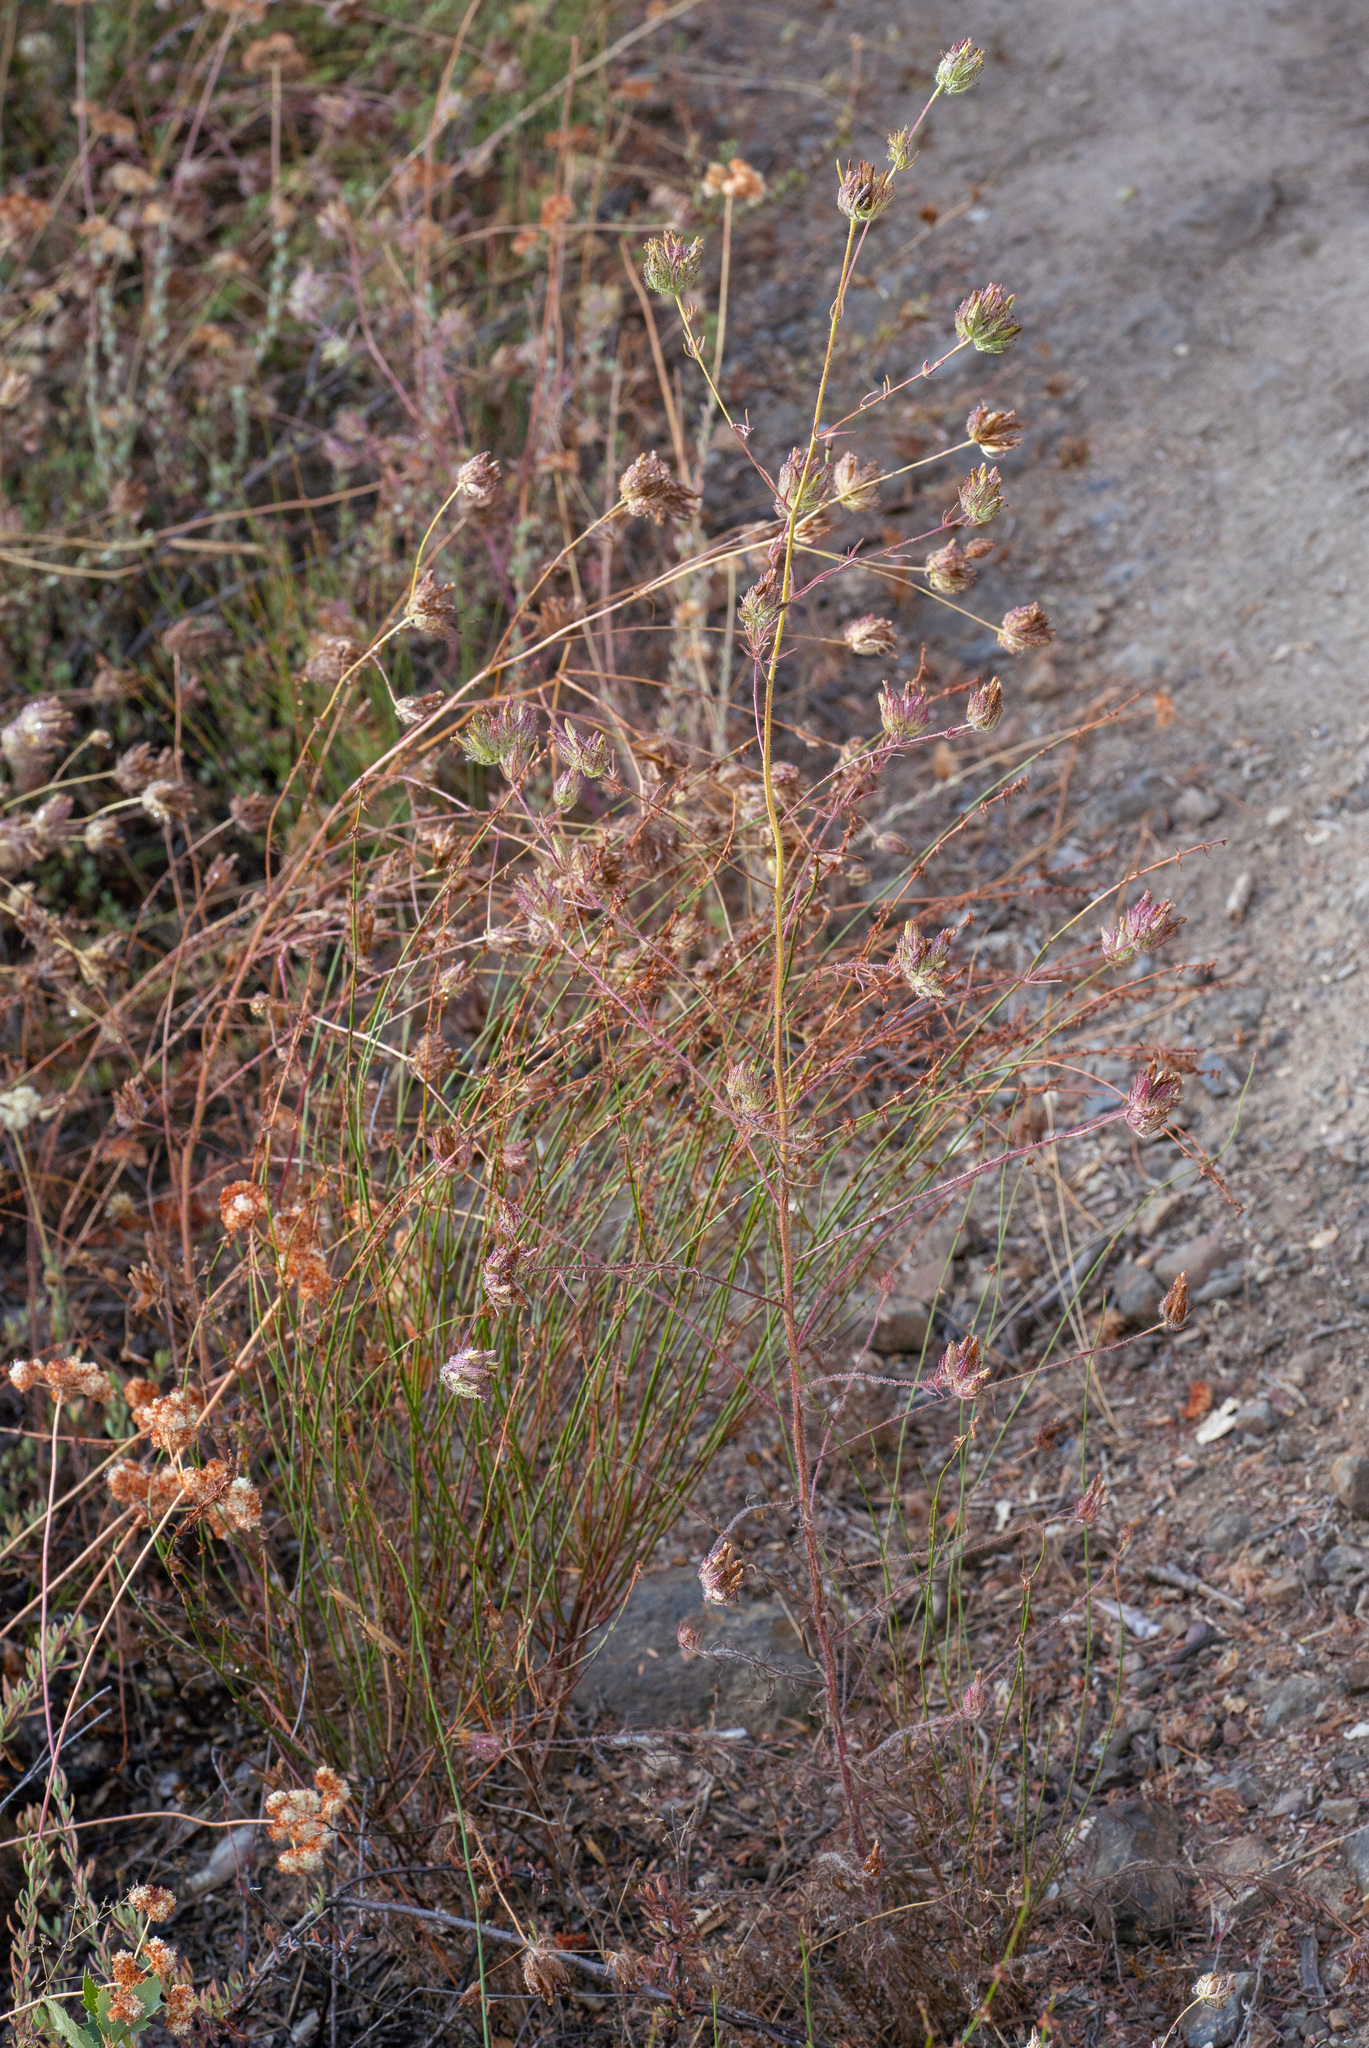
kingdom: Plantae
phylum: Tracheophyta
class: Magnoliopsida
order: Lamiales
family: Orobanchaceae
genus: Cordylanthus
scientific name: Cordylanthus rigidus
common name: Stiff-branch bird's-beak
